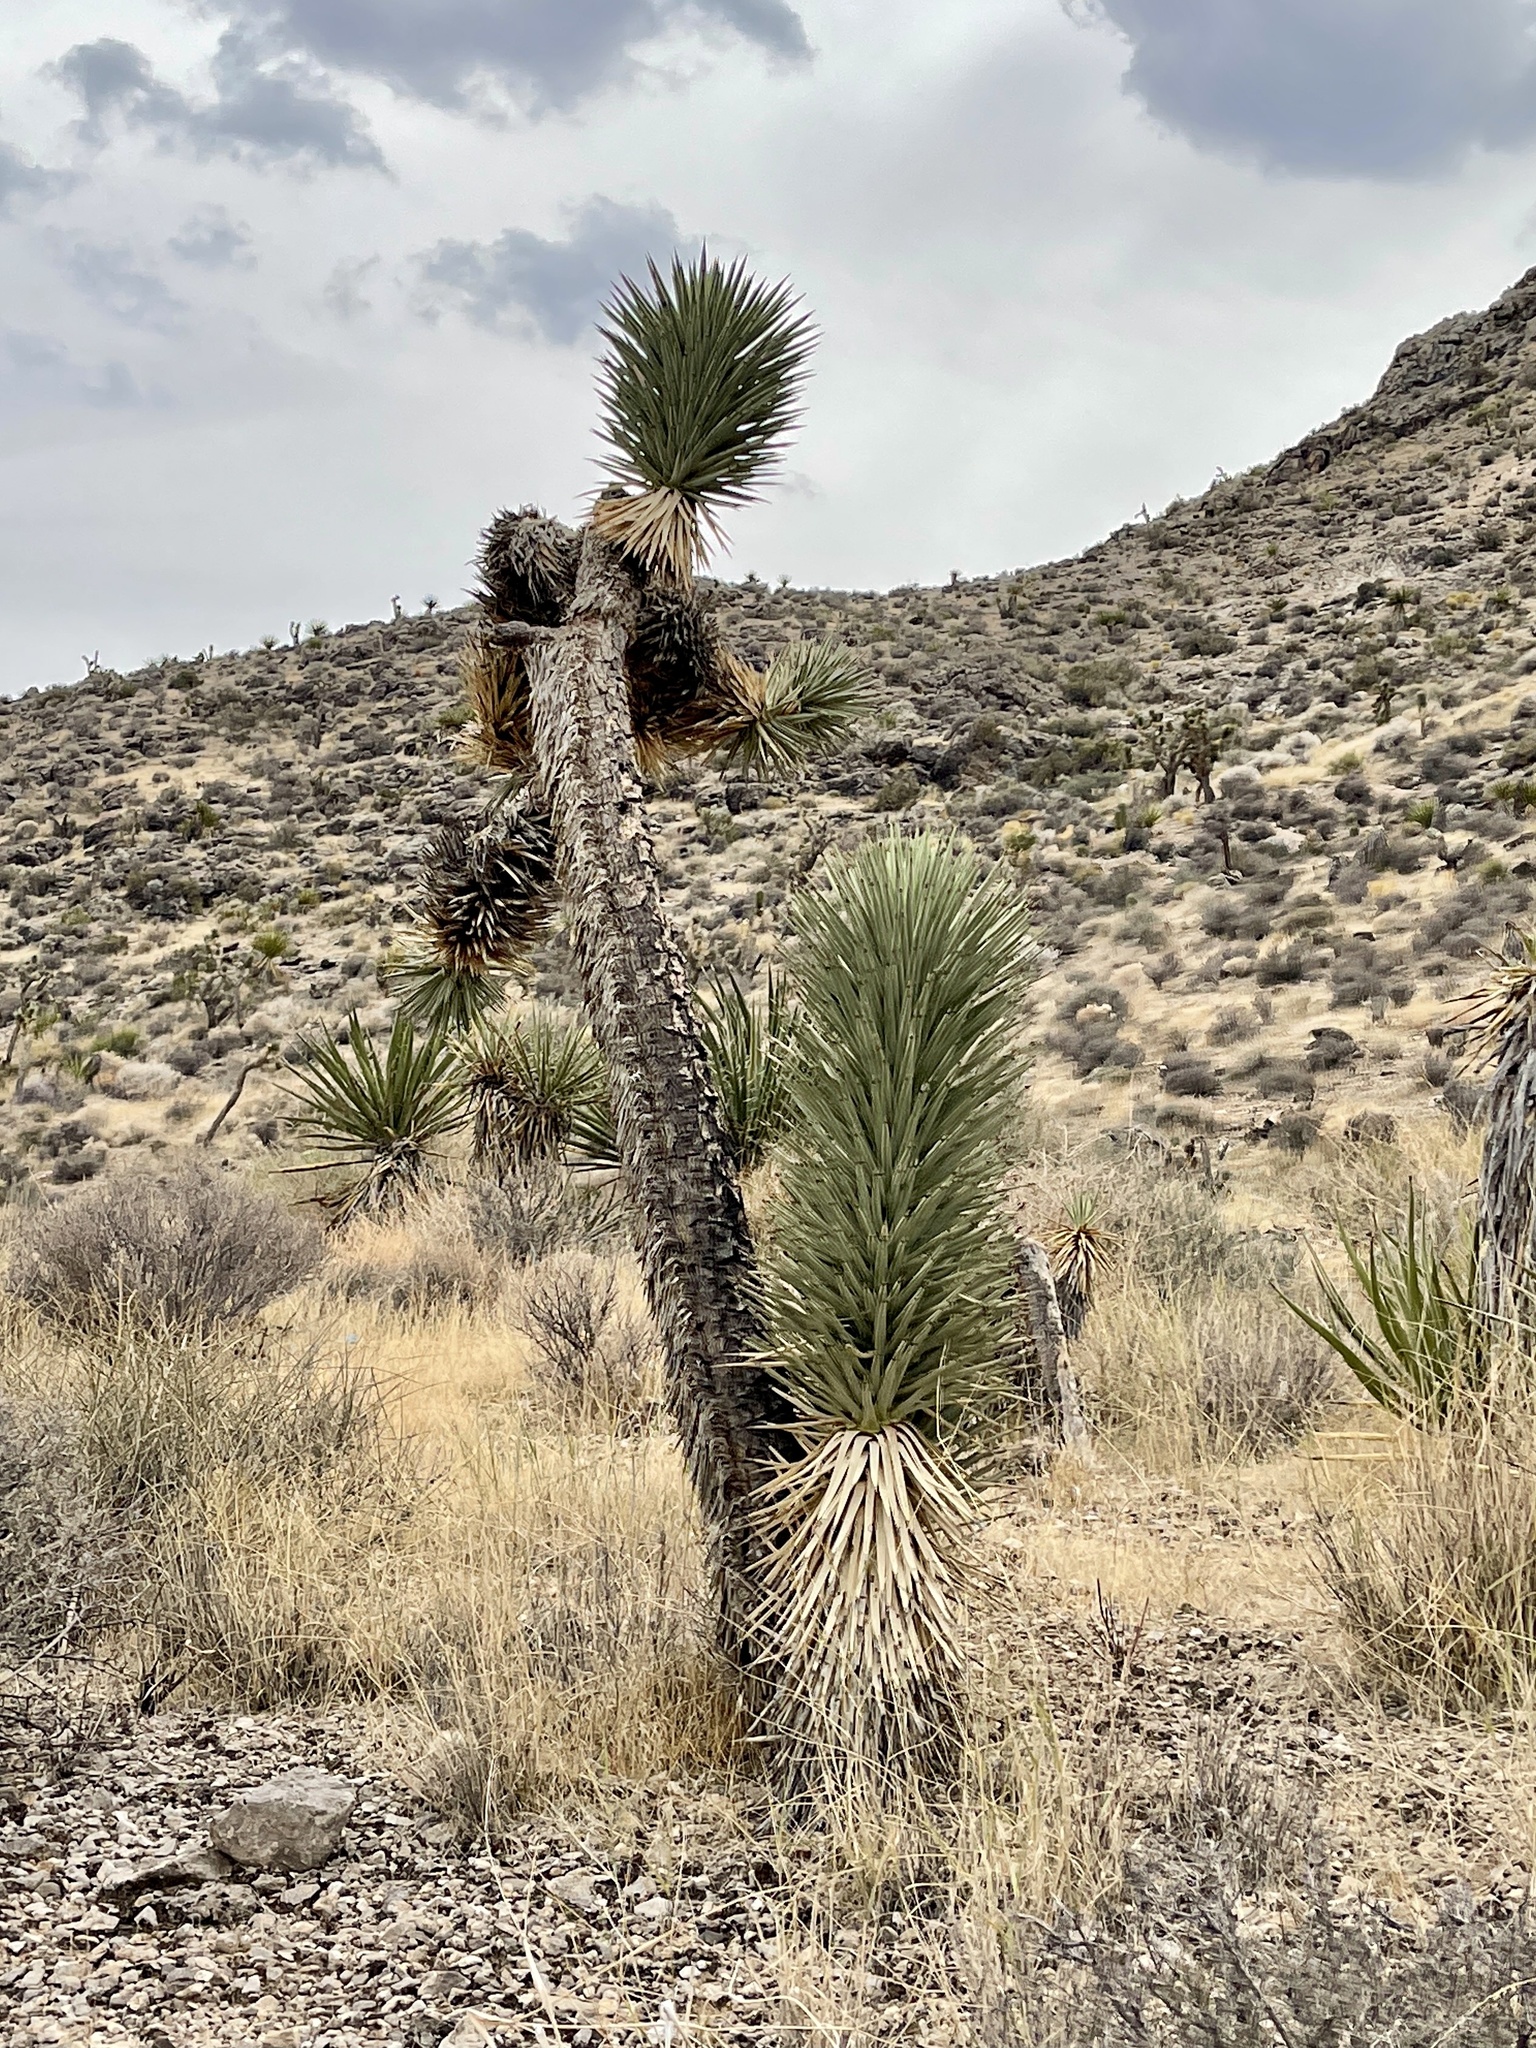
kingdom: Plantae
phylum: Tracheophyta
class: Liliopsida
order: Asparagales
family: Asparagaceae
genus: Yucca
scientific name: Yucca brevifolia
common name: Joshua tree
